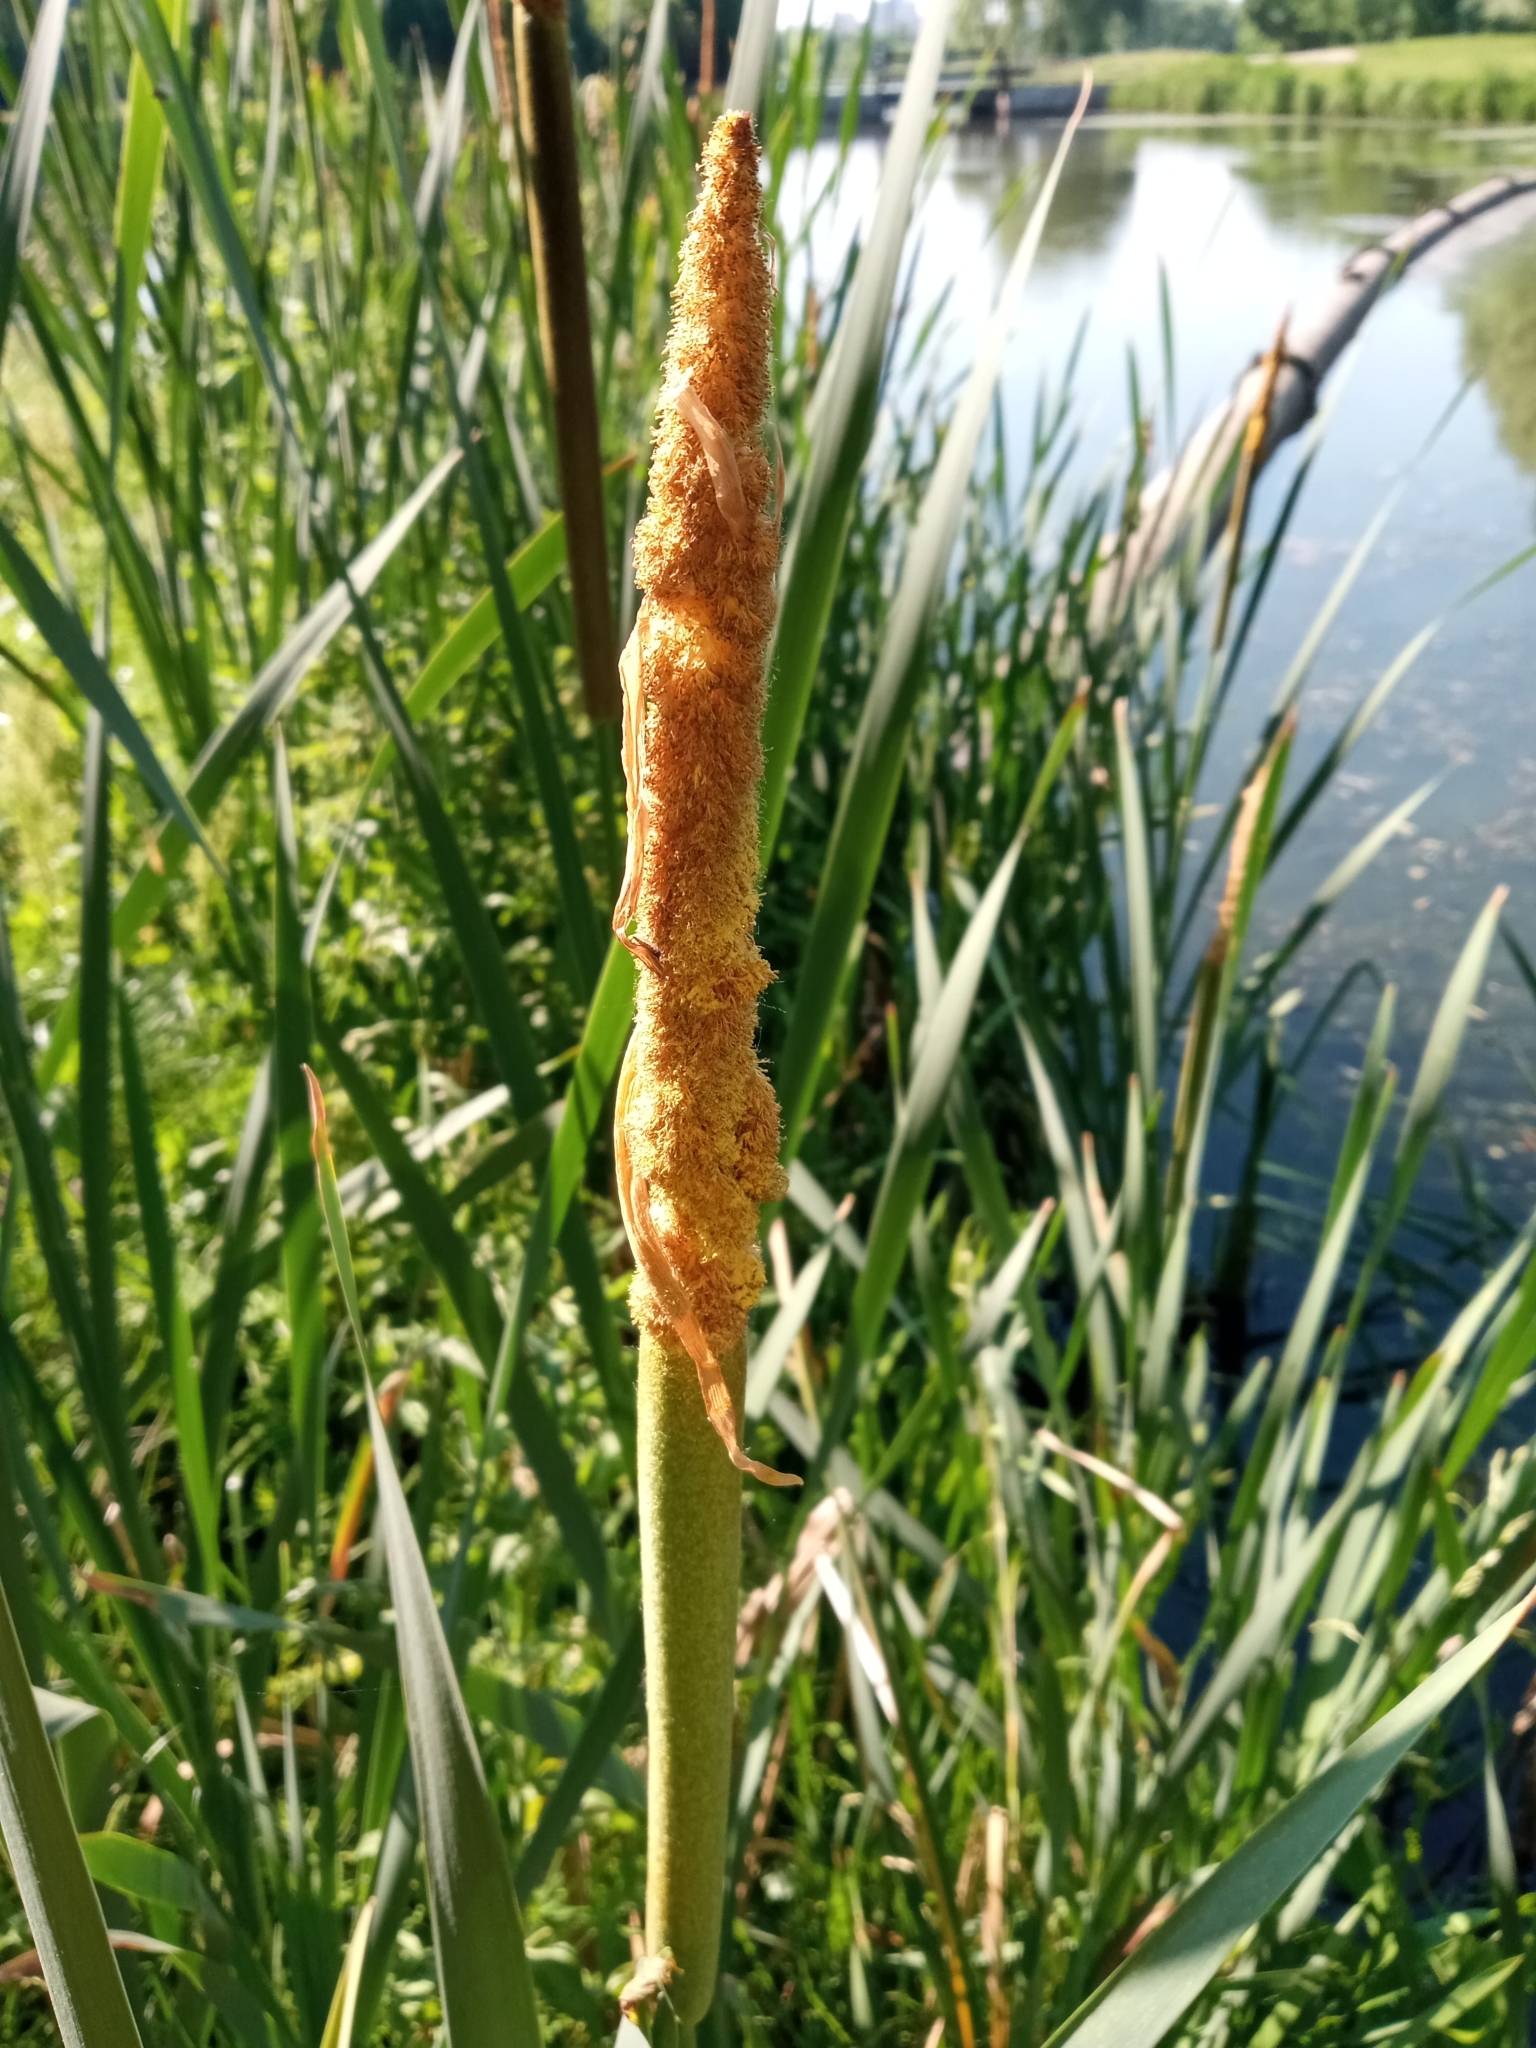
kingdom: Plantae
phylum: Tracheophyta
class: Liliopsida
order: Poales
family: Typhaceae
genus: Typha
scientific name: Typha latifolia
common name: Broadleaf cattail
